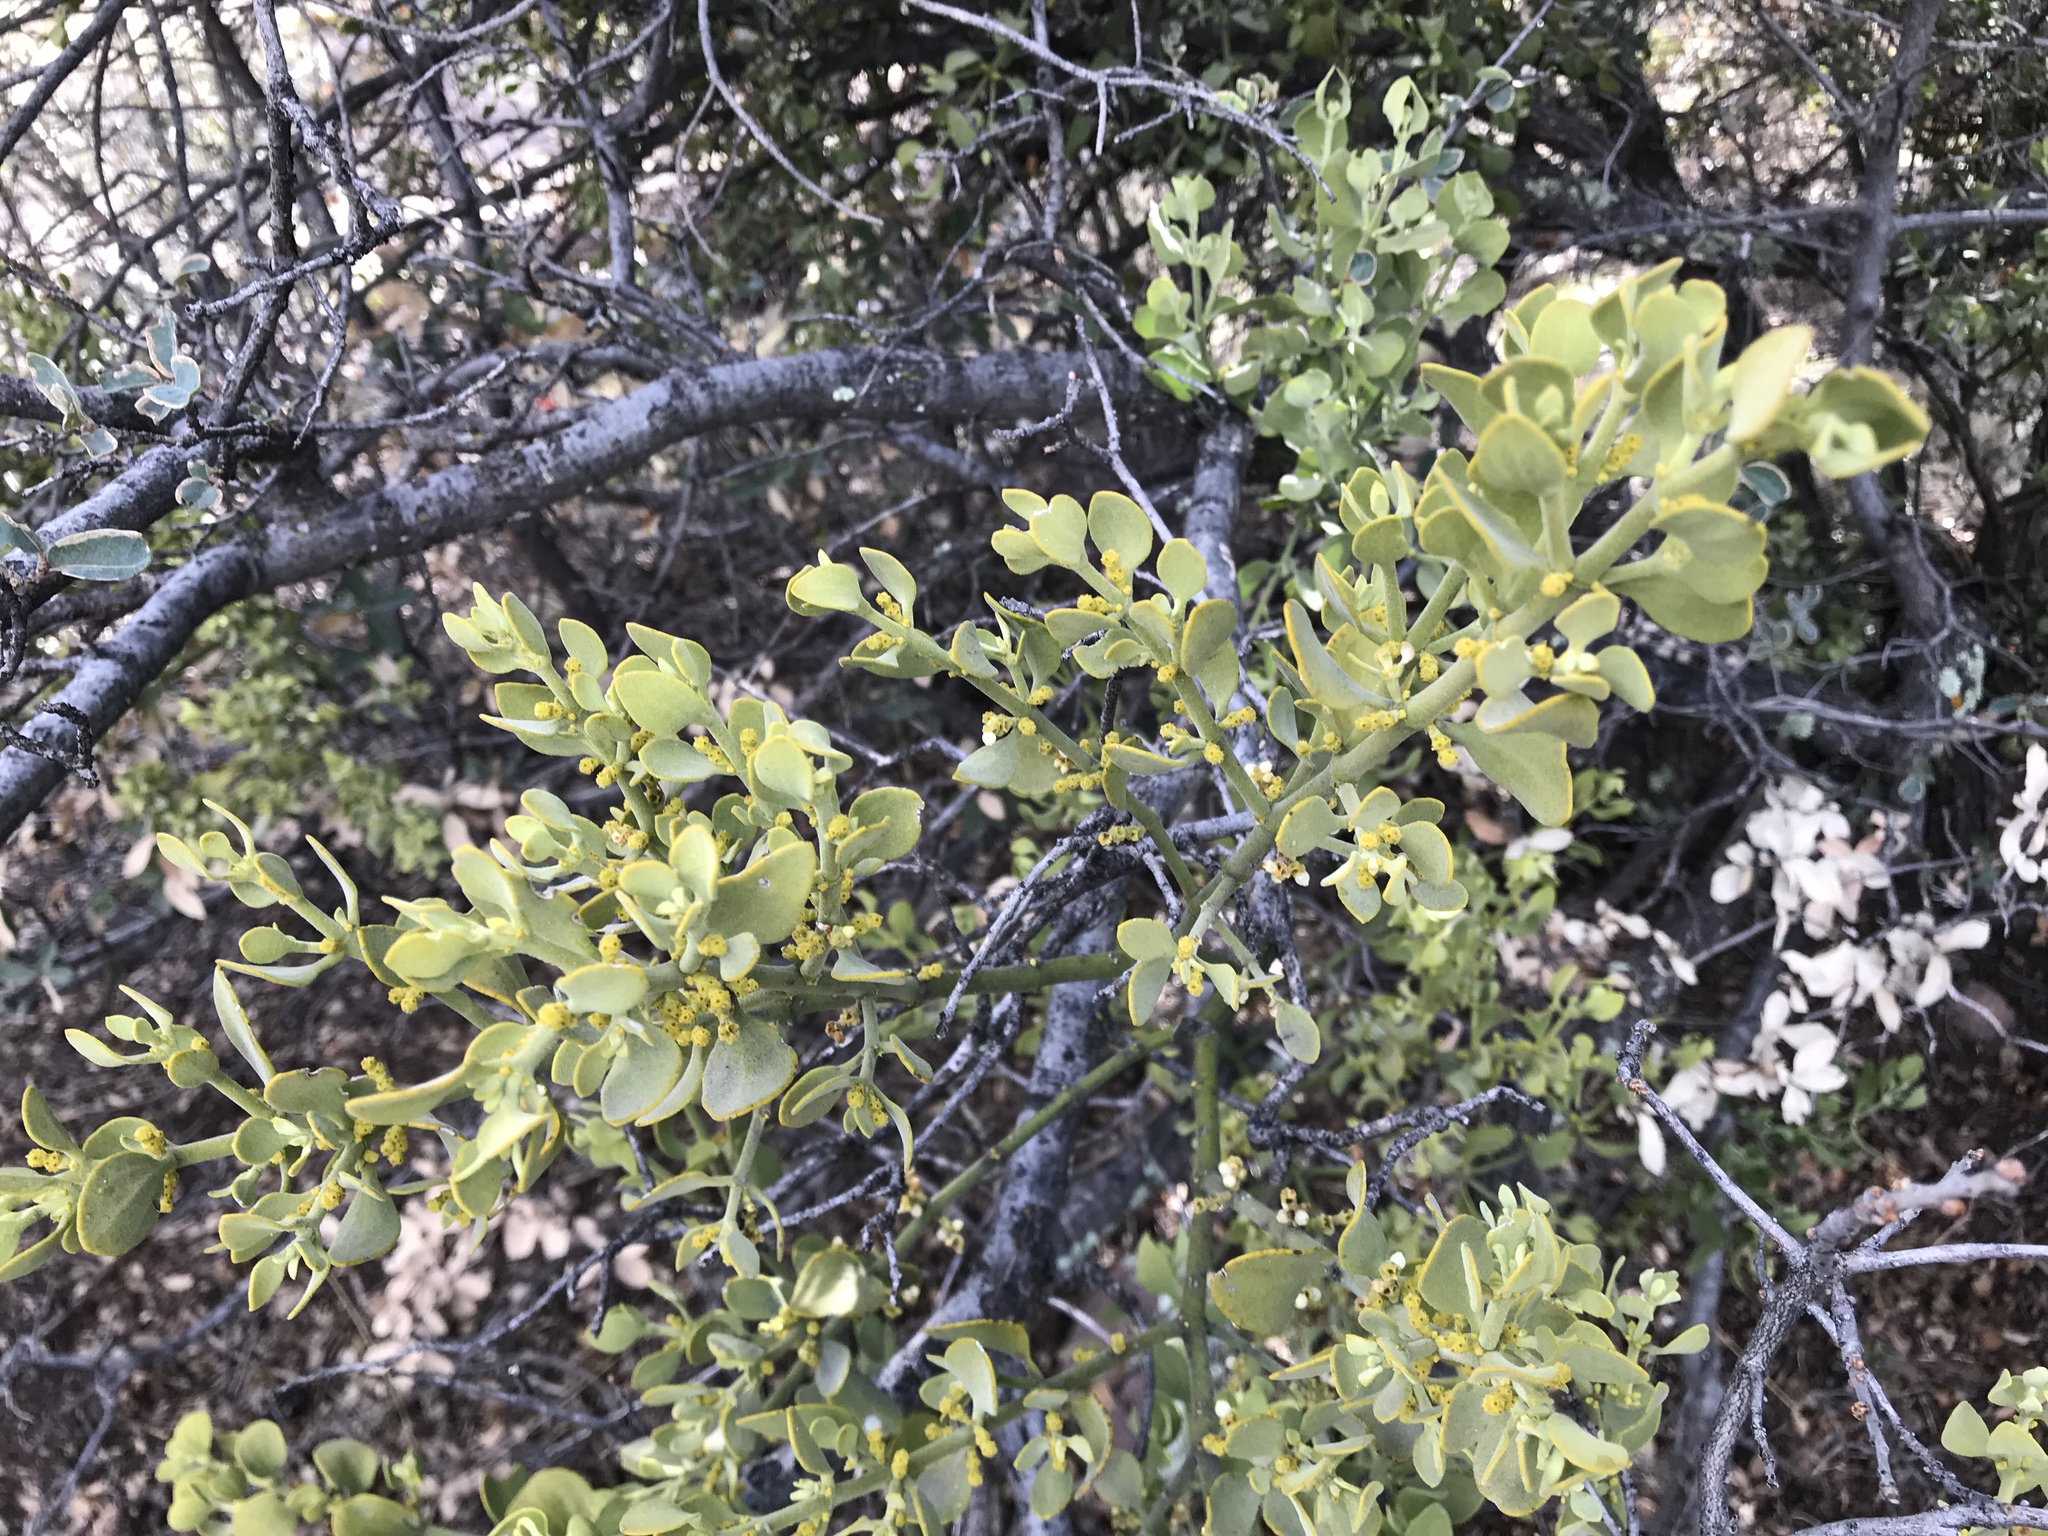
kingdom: Plantae
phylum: Tracheophyta
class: Magnoliopsida
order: Santalales
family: Viscaceae
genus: Phoradendron
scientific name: Phoradendron coryae
